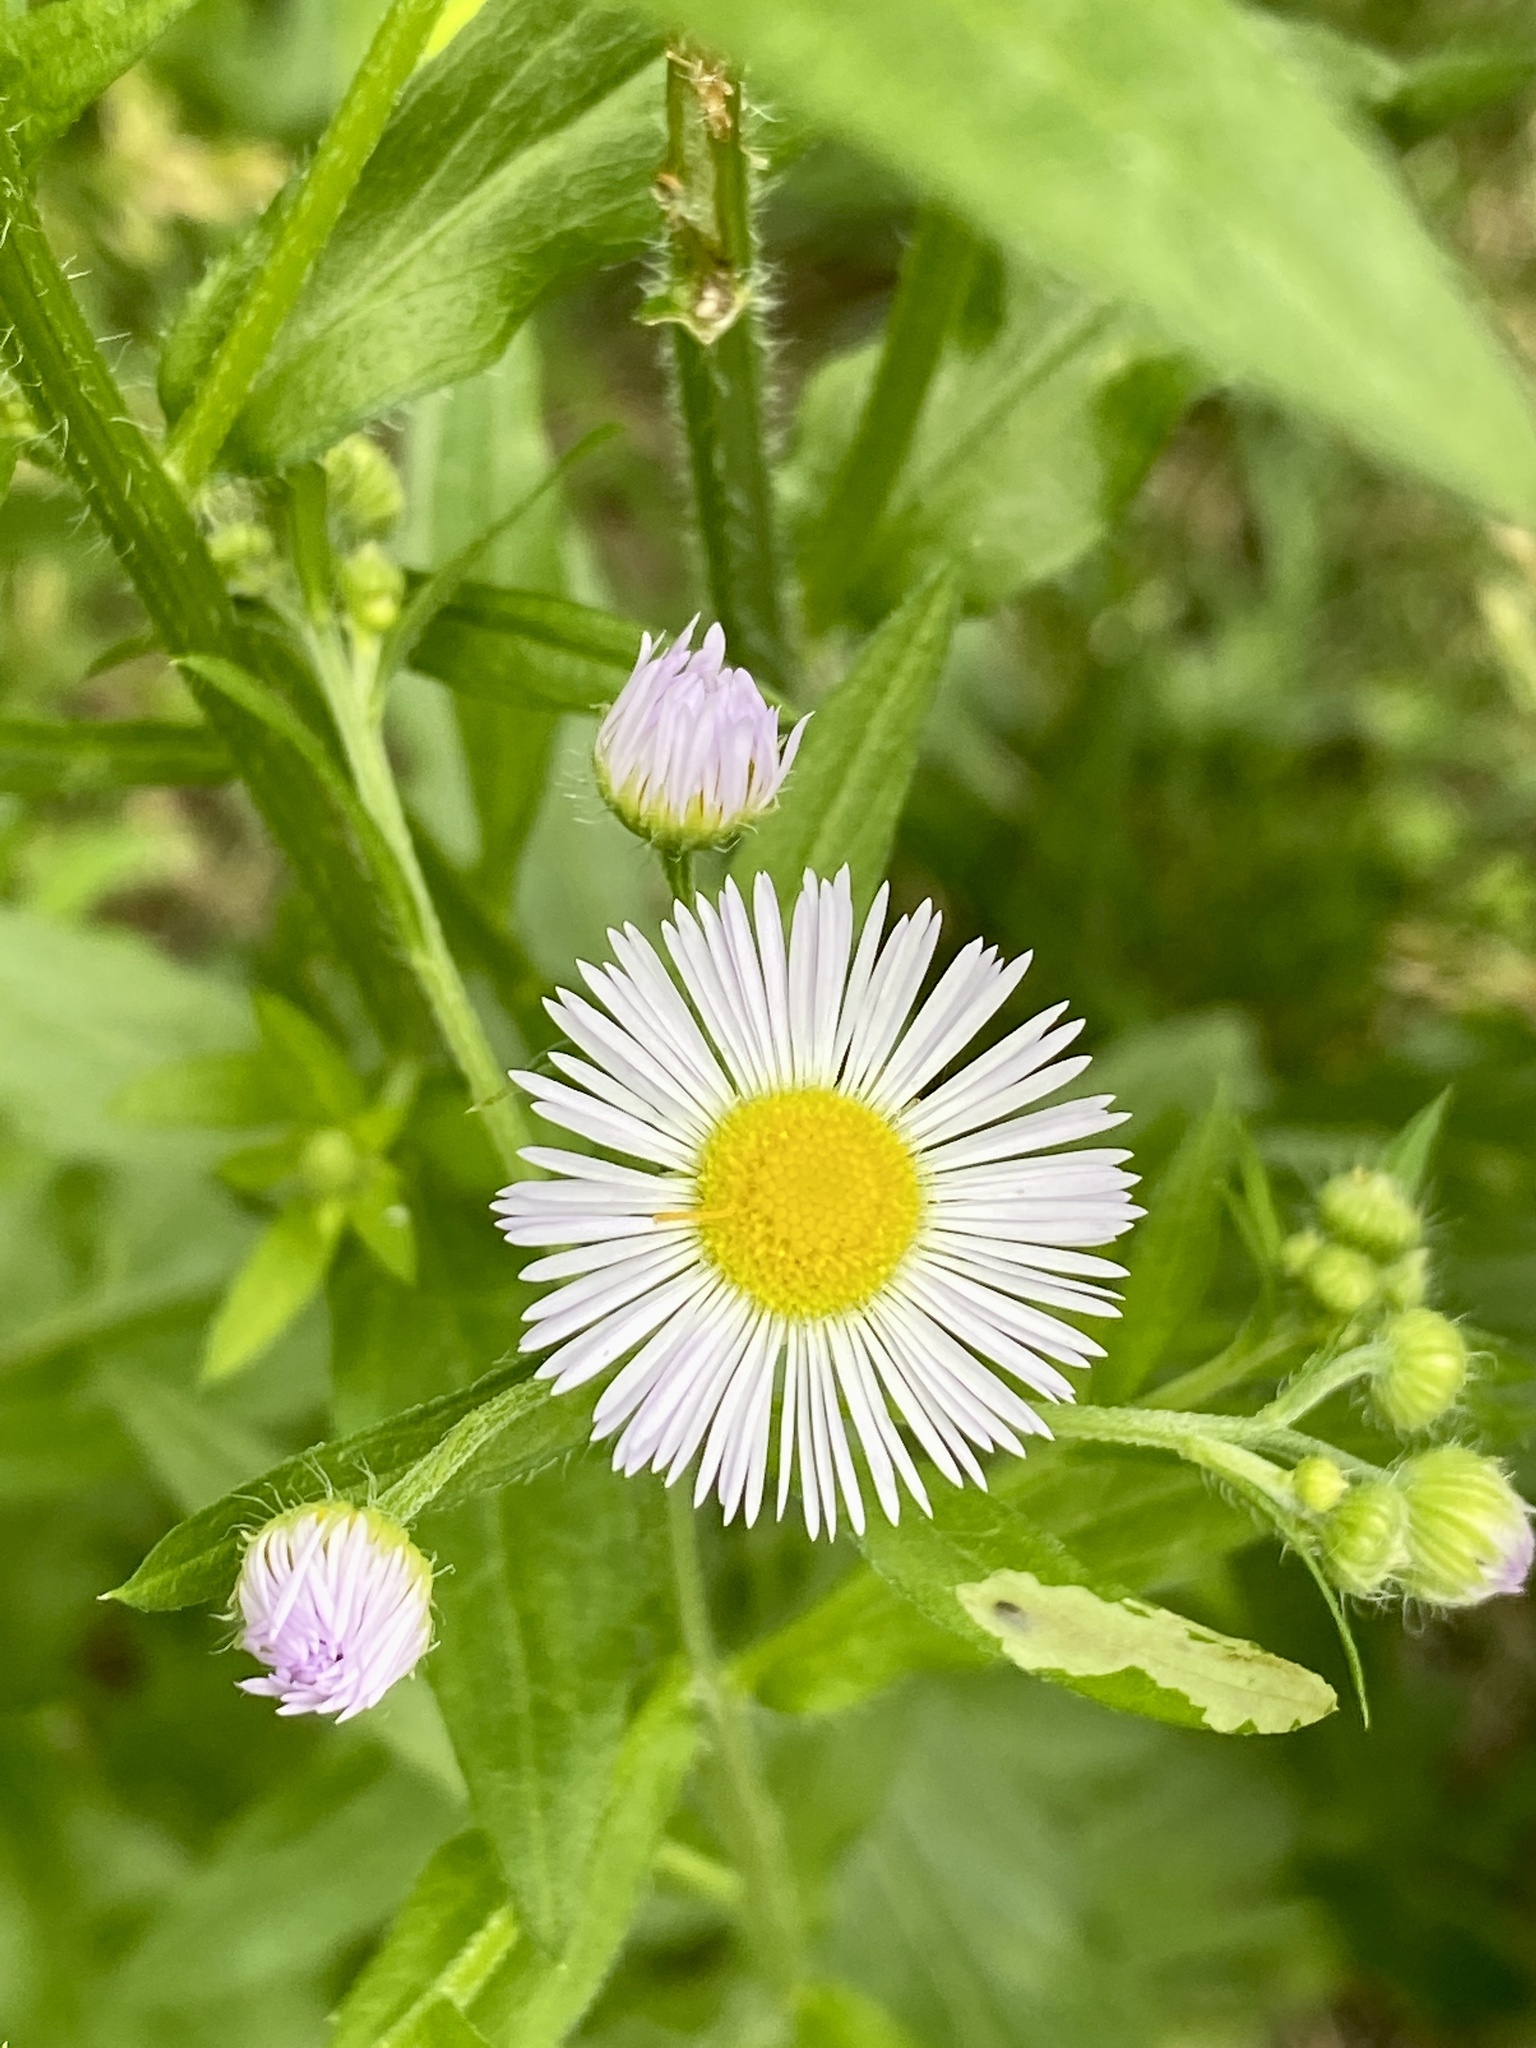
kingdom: Plantae
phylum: Tracheophyta
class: Magnoliopsida
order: Asterales
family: Asteraceae
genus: Erigeron
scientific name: Erigeron annuus
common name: Tall fleabane
